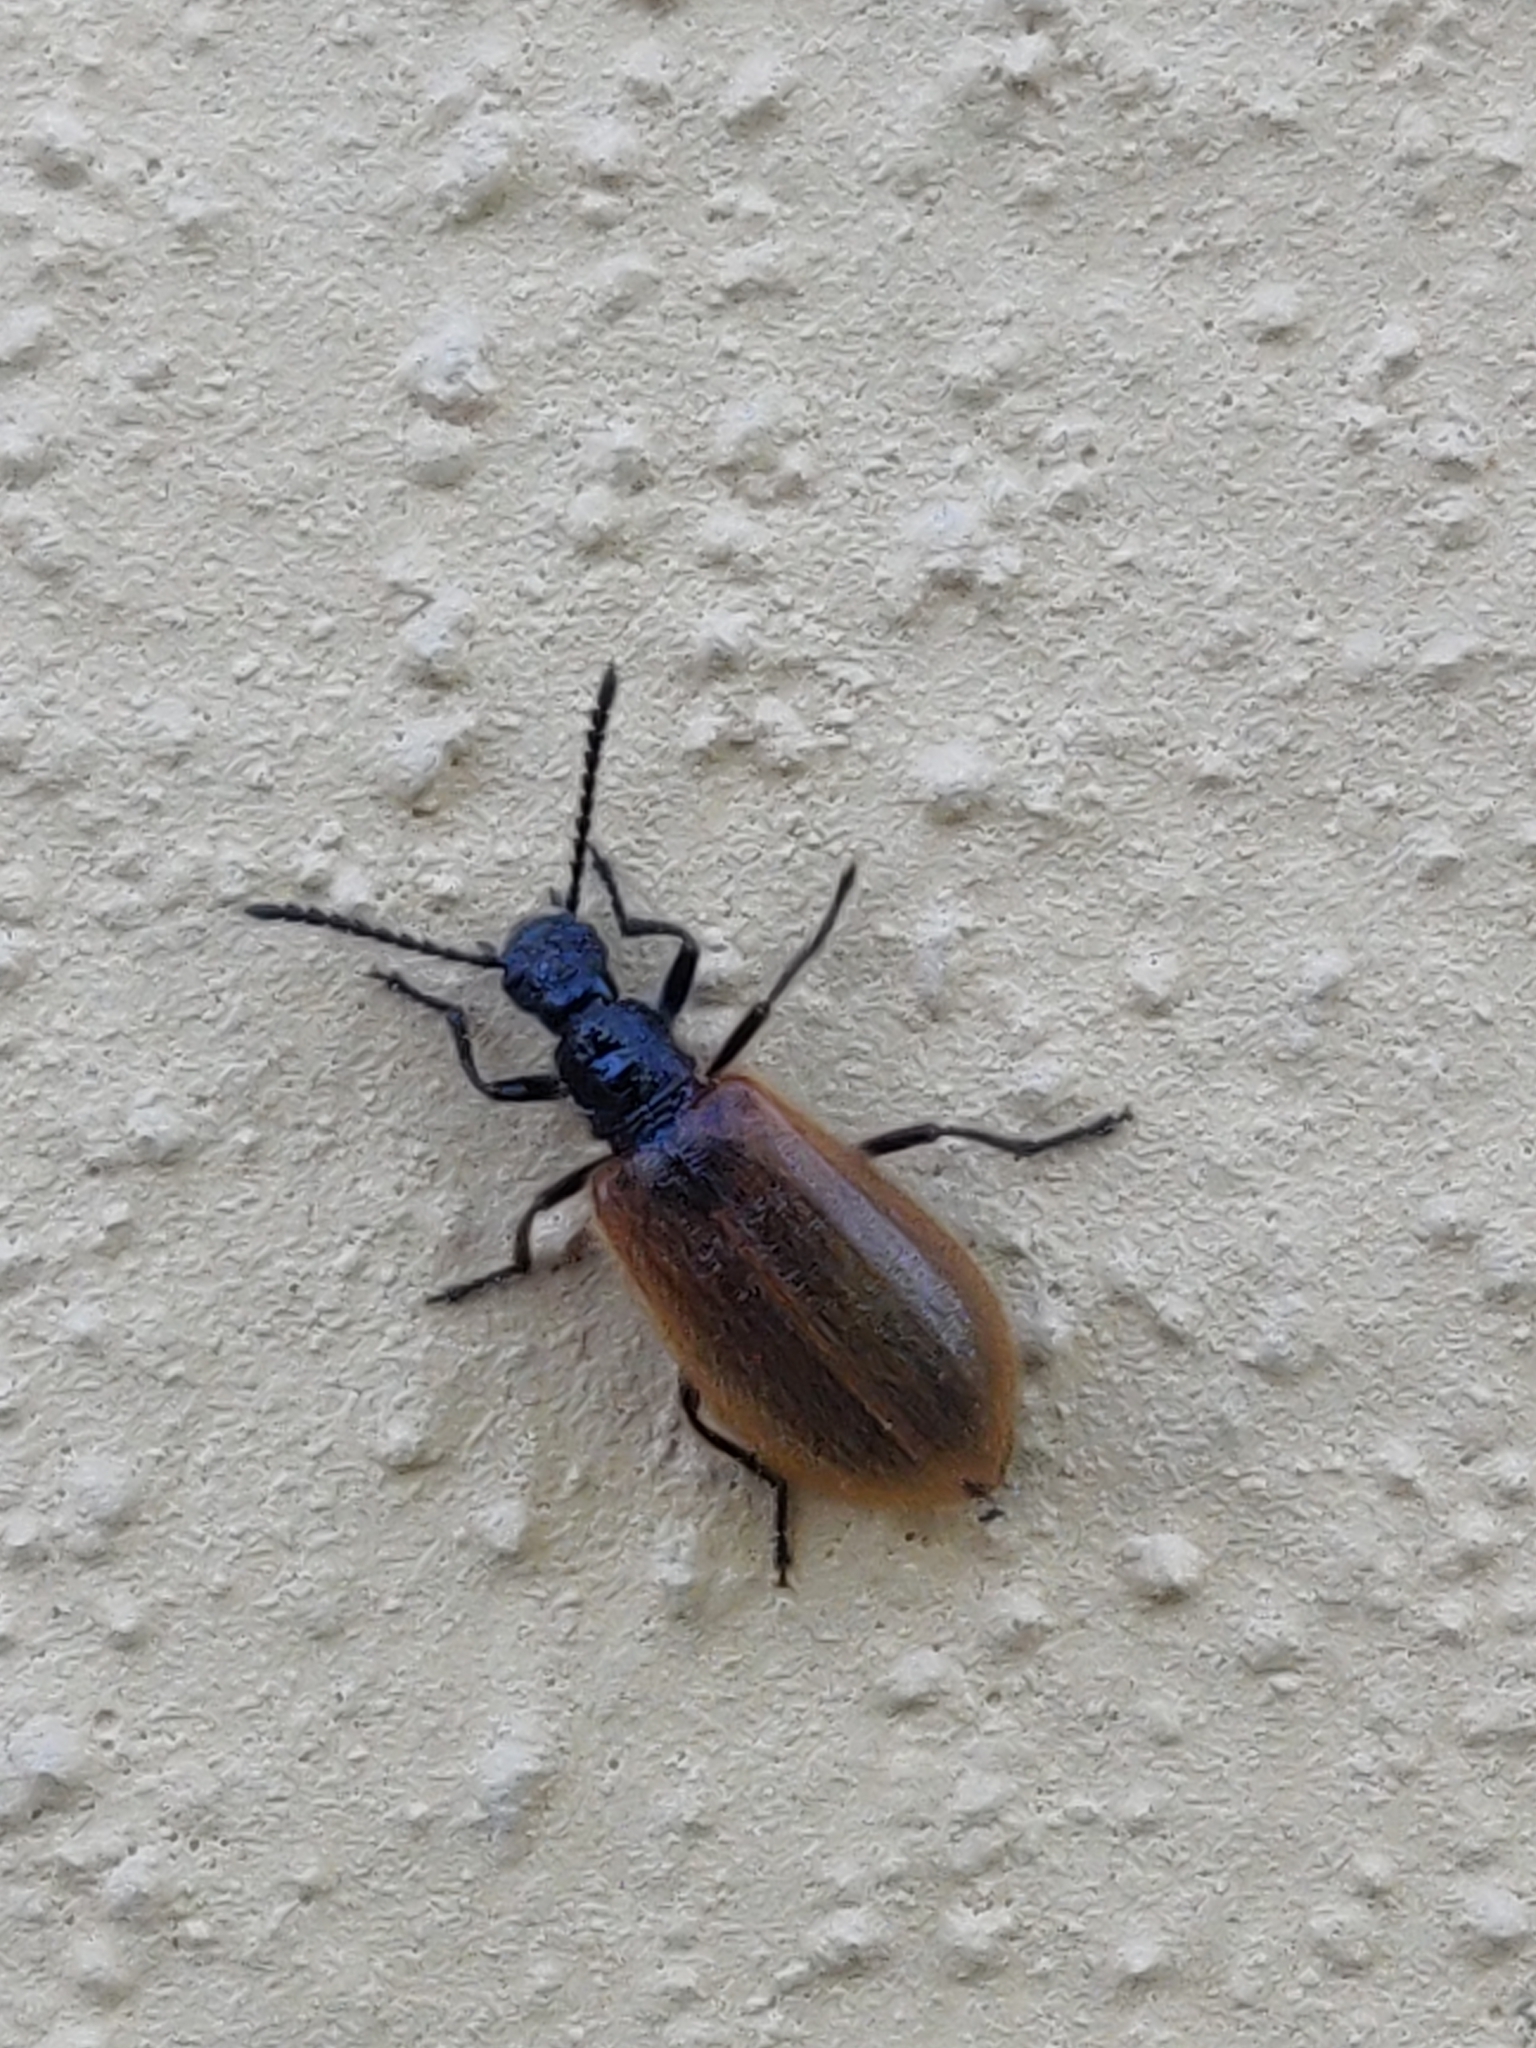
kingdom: Animalia
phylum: Arthropoda
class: Insecta
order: Coleoptera
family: Tenebrionidae
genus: Lagria
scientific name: Lagria hirta
